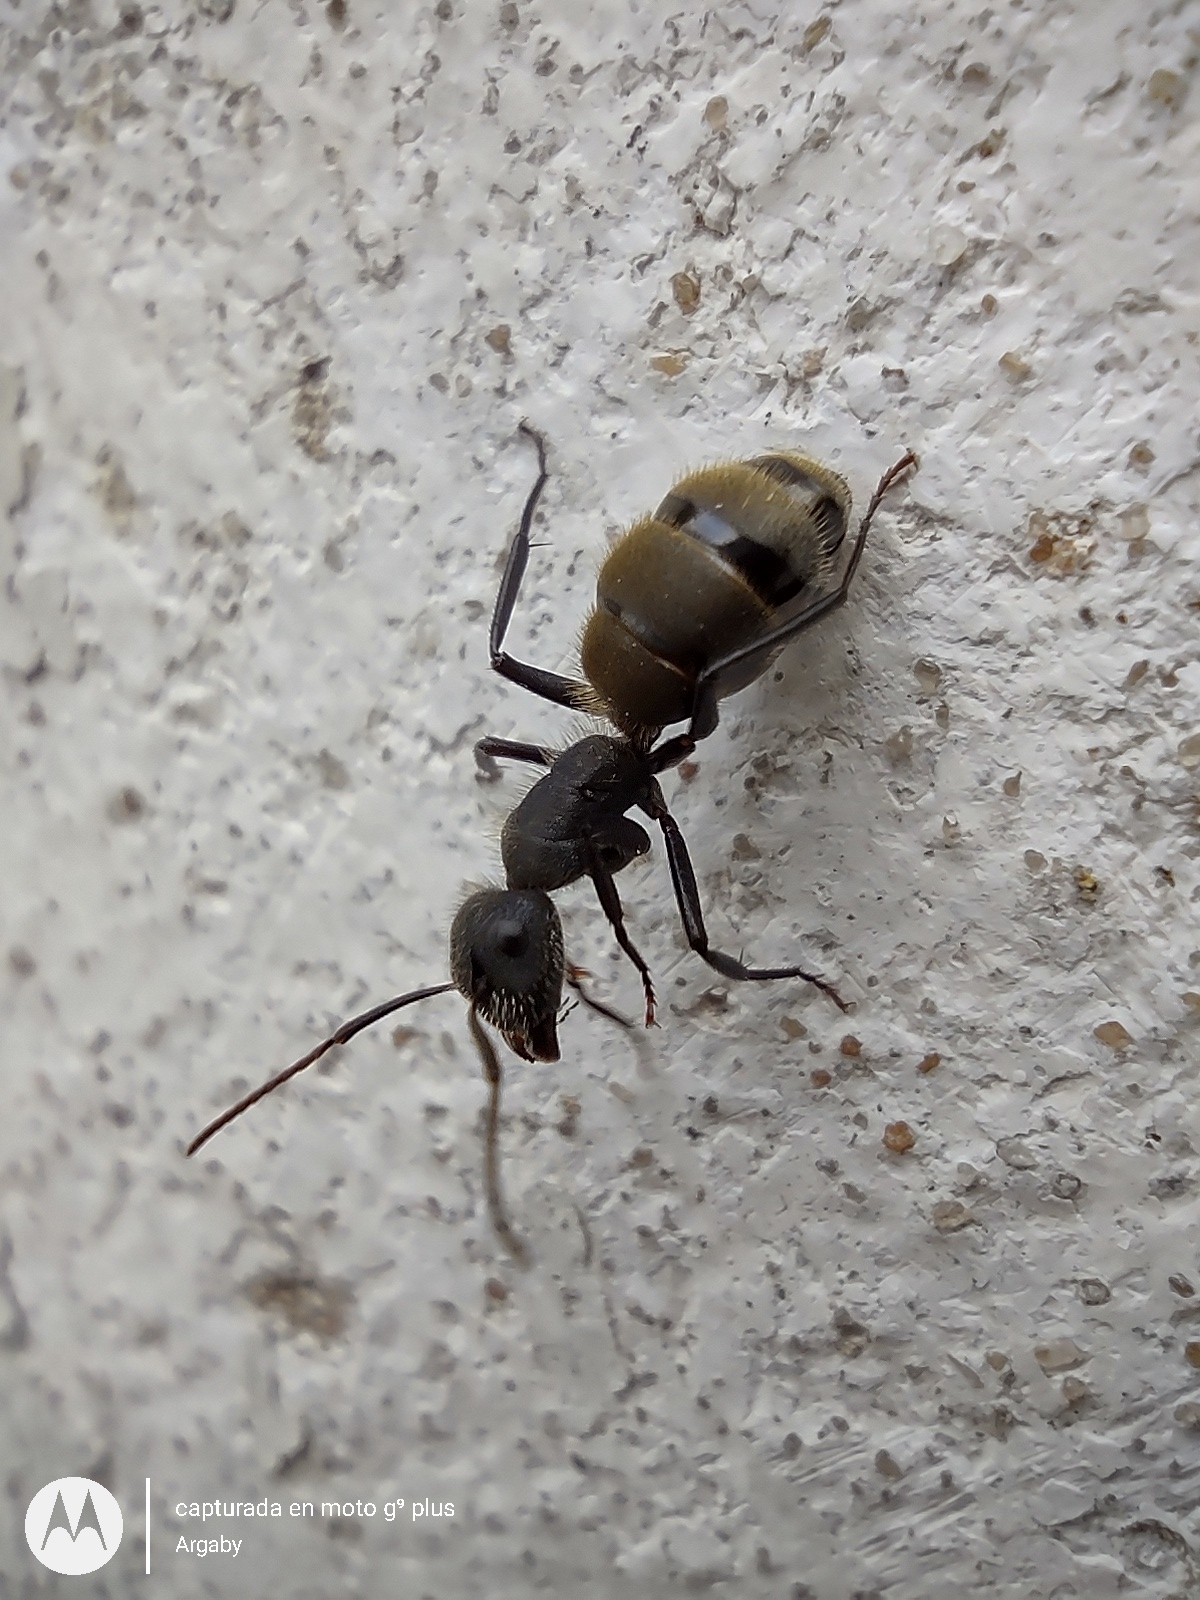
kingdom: Animalia
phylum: Arthropoda
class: Insecta
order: Hymenoptera
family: Formicidae
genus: Camponotus
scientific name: Camponotus mus
